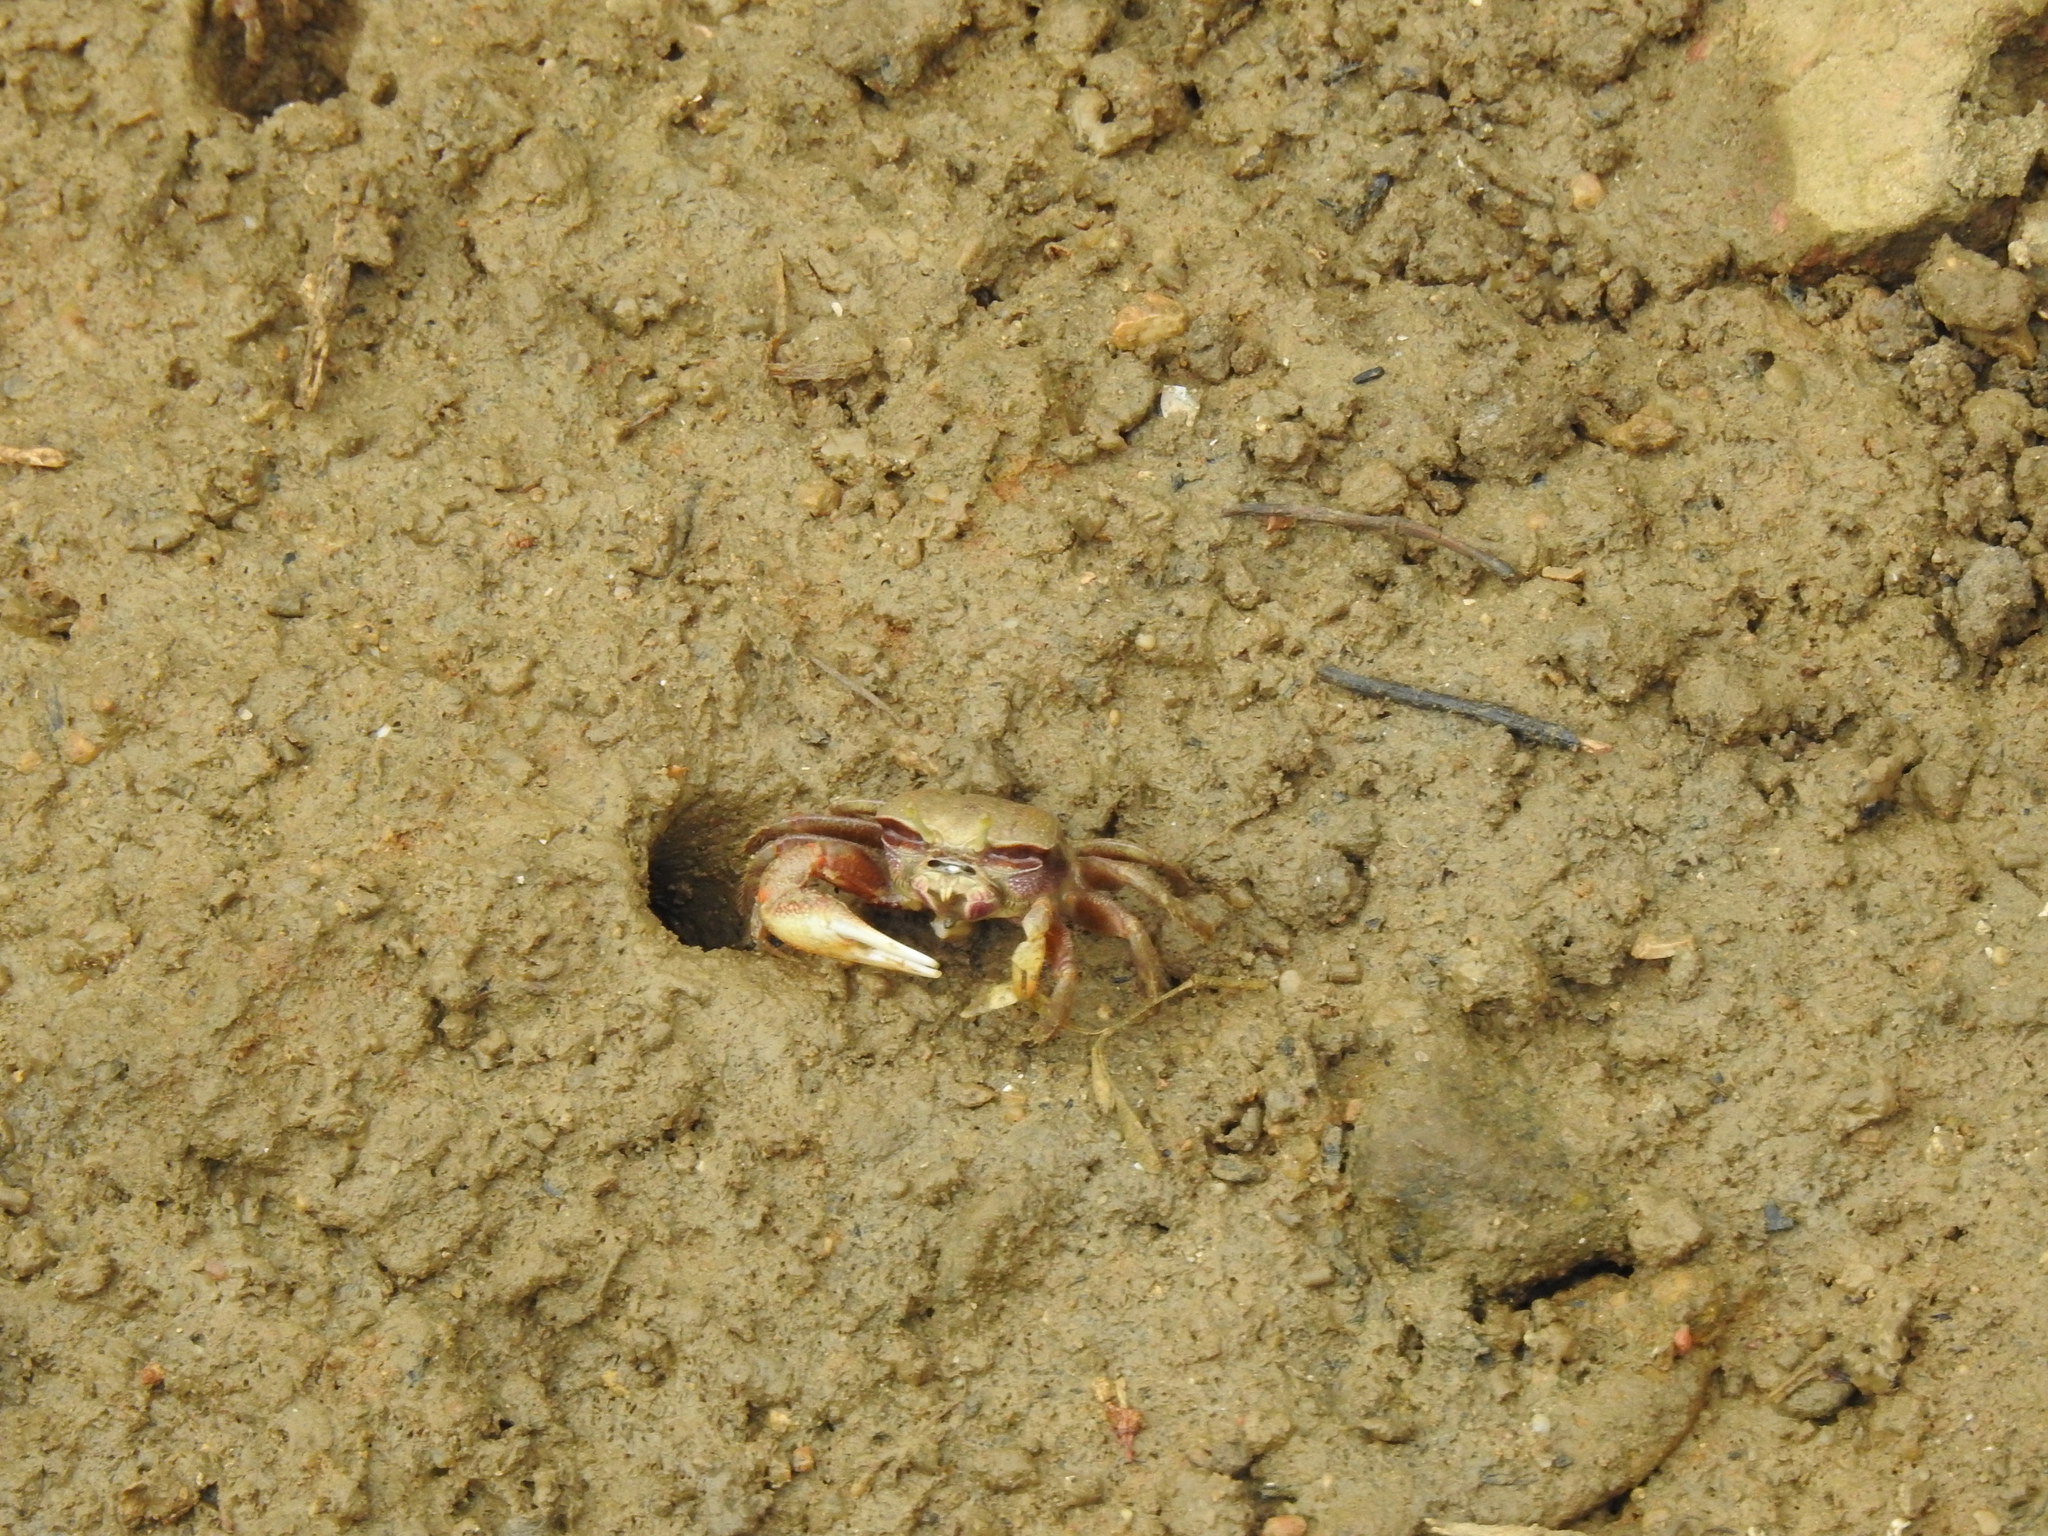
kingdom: Animalia
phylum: Arthropoda
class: Malacostraca
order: Decapoda
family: Ocypodidae
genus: Afruca
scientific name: Afruca tangeri
